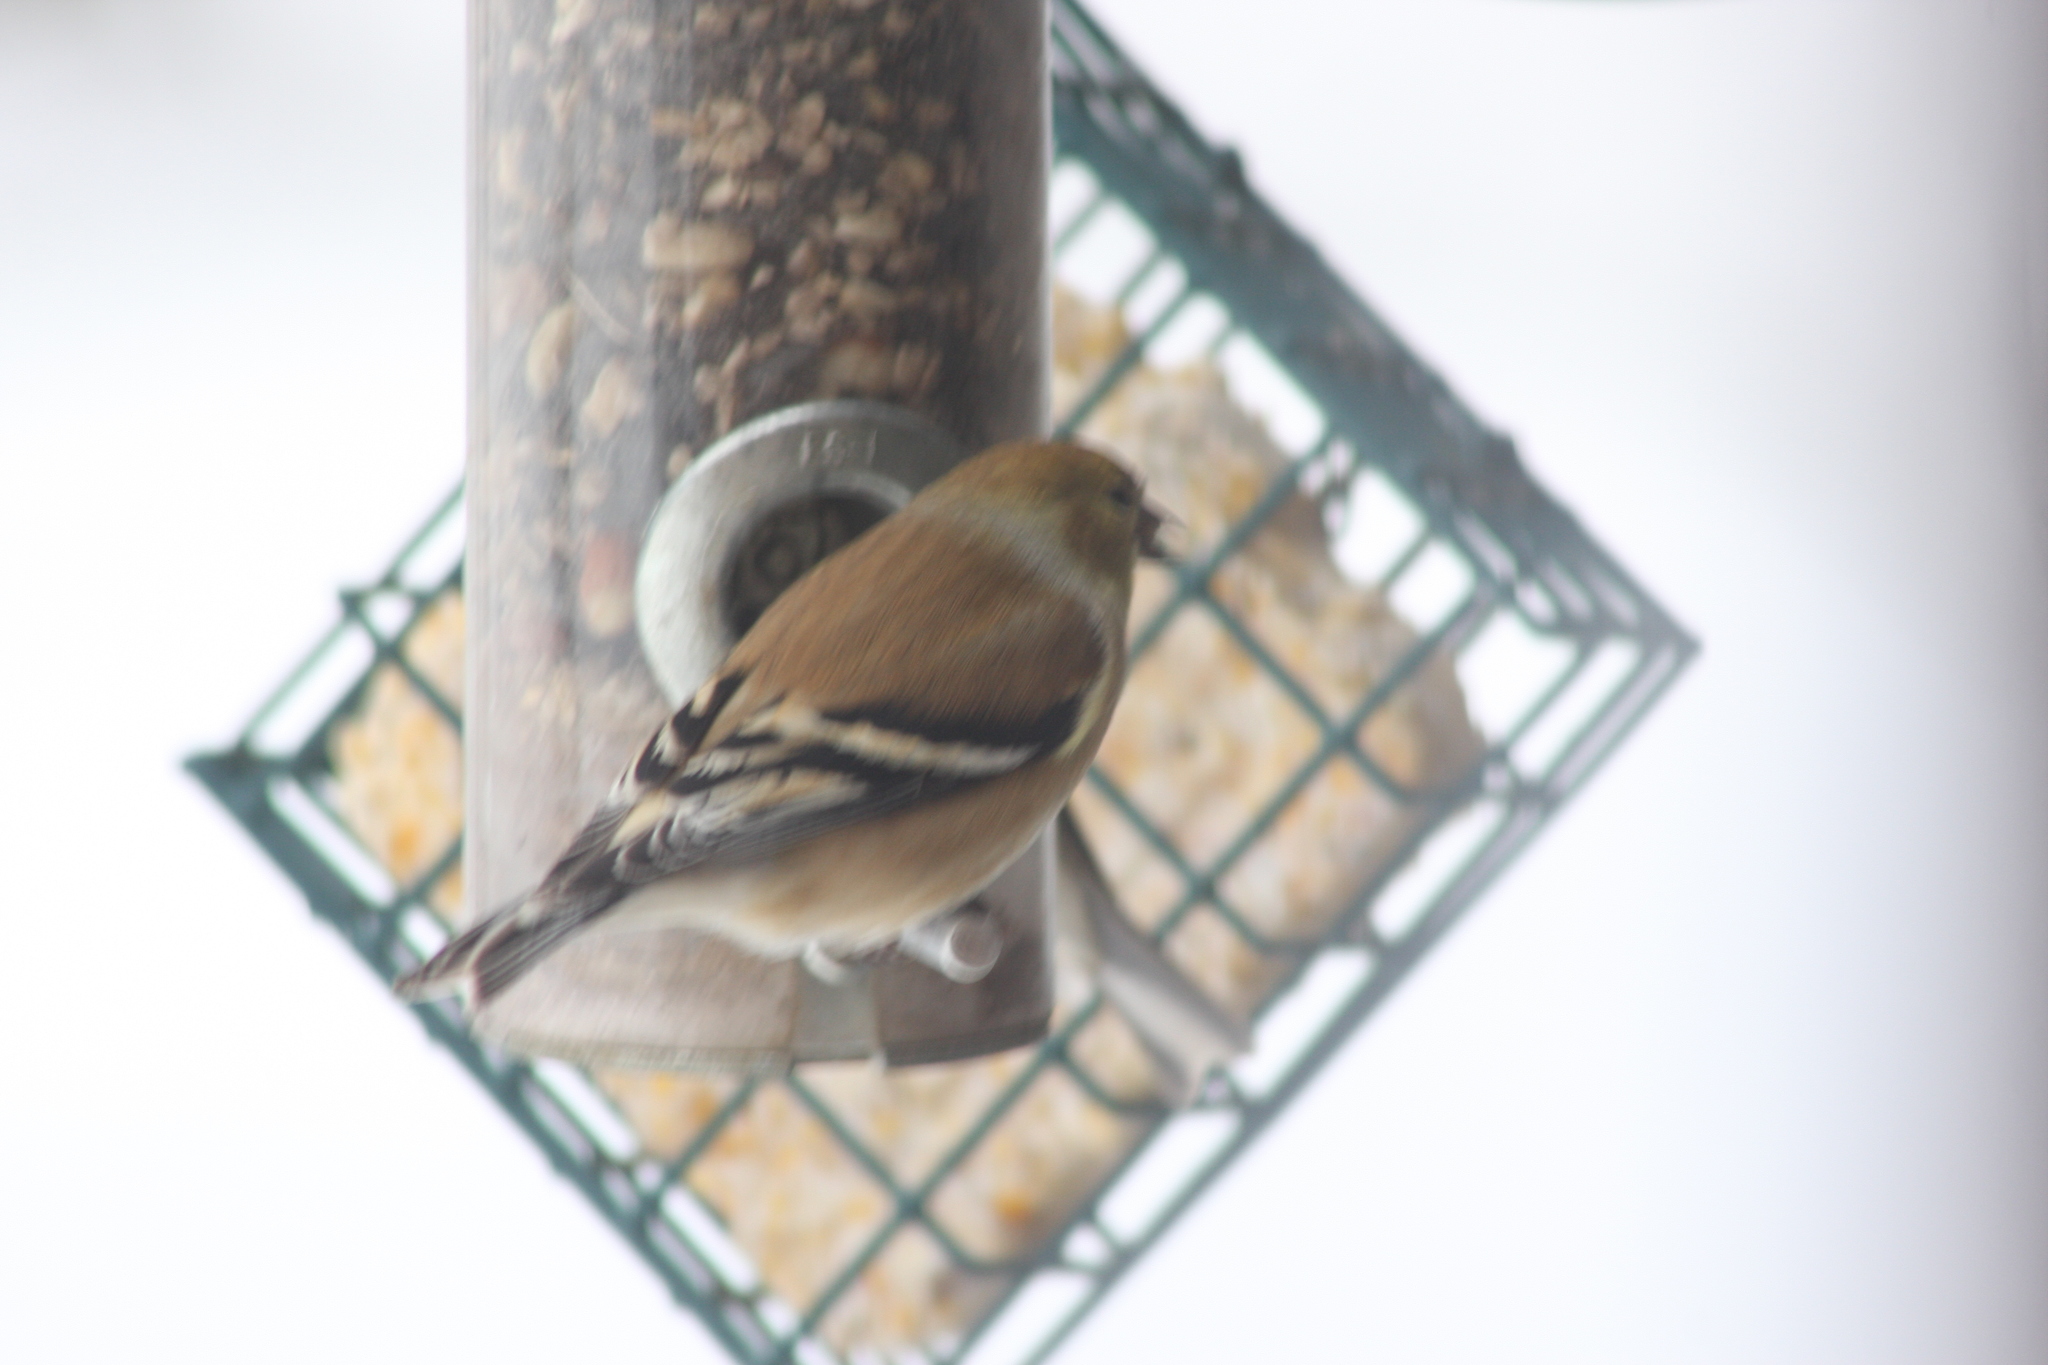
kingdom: Animalia
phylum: Chordata
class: Aves
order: Passeriformes
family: Fringillidae
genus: Spinus
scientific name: Spinus tristis
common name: American goldfinch
